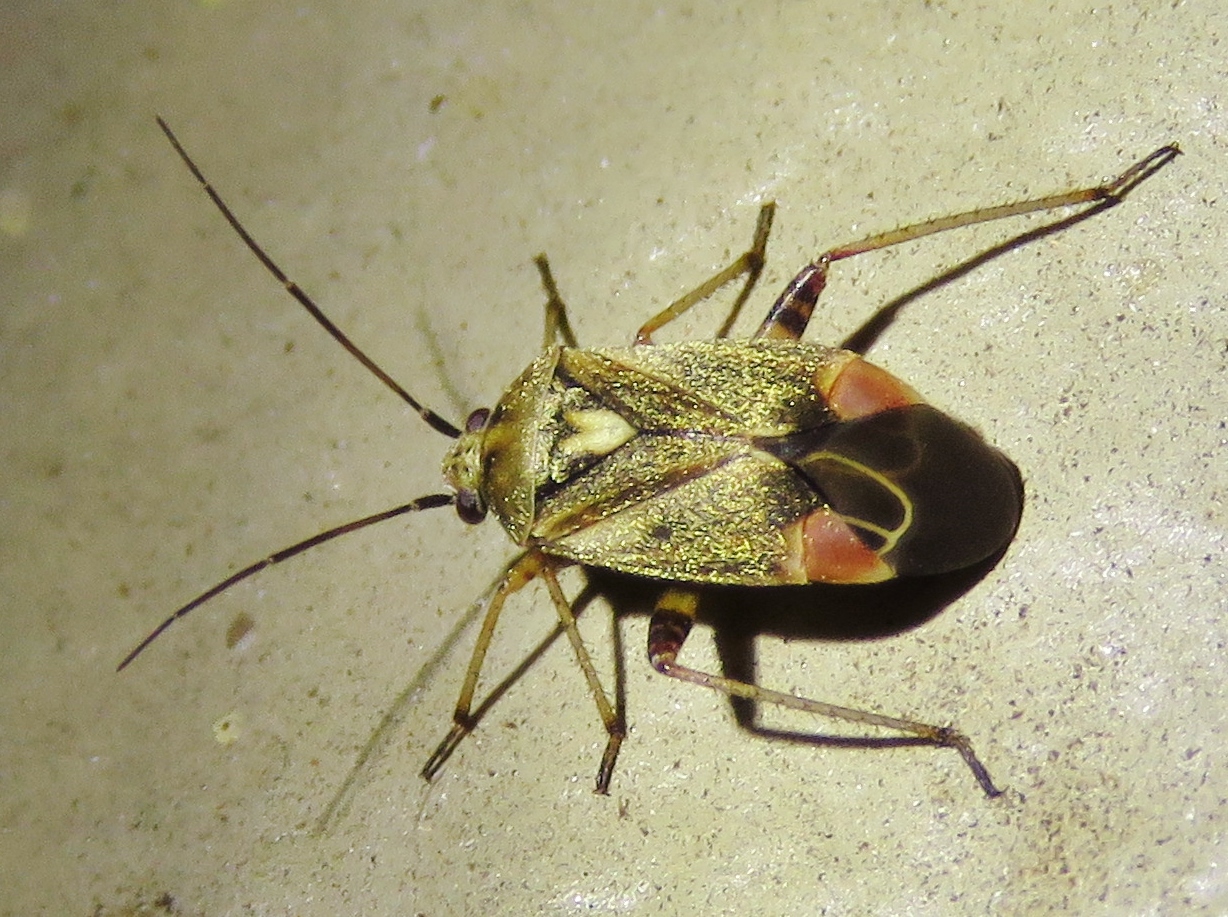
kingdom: Animalia
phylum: Arthropoda
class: Insecta
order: Hemiptera
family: Miridae
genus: Polymerus
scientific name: Polymerus basalis
